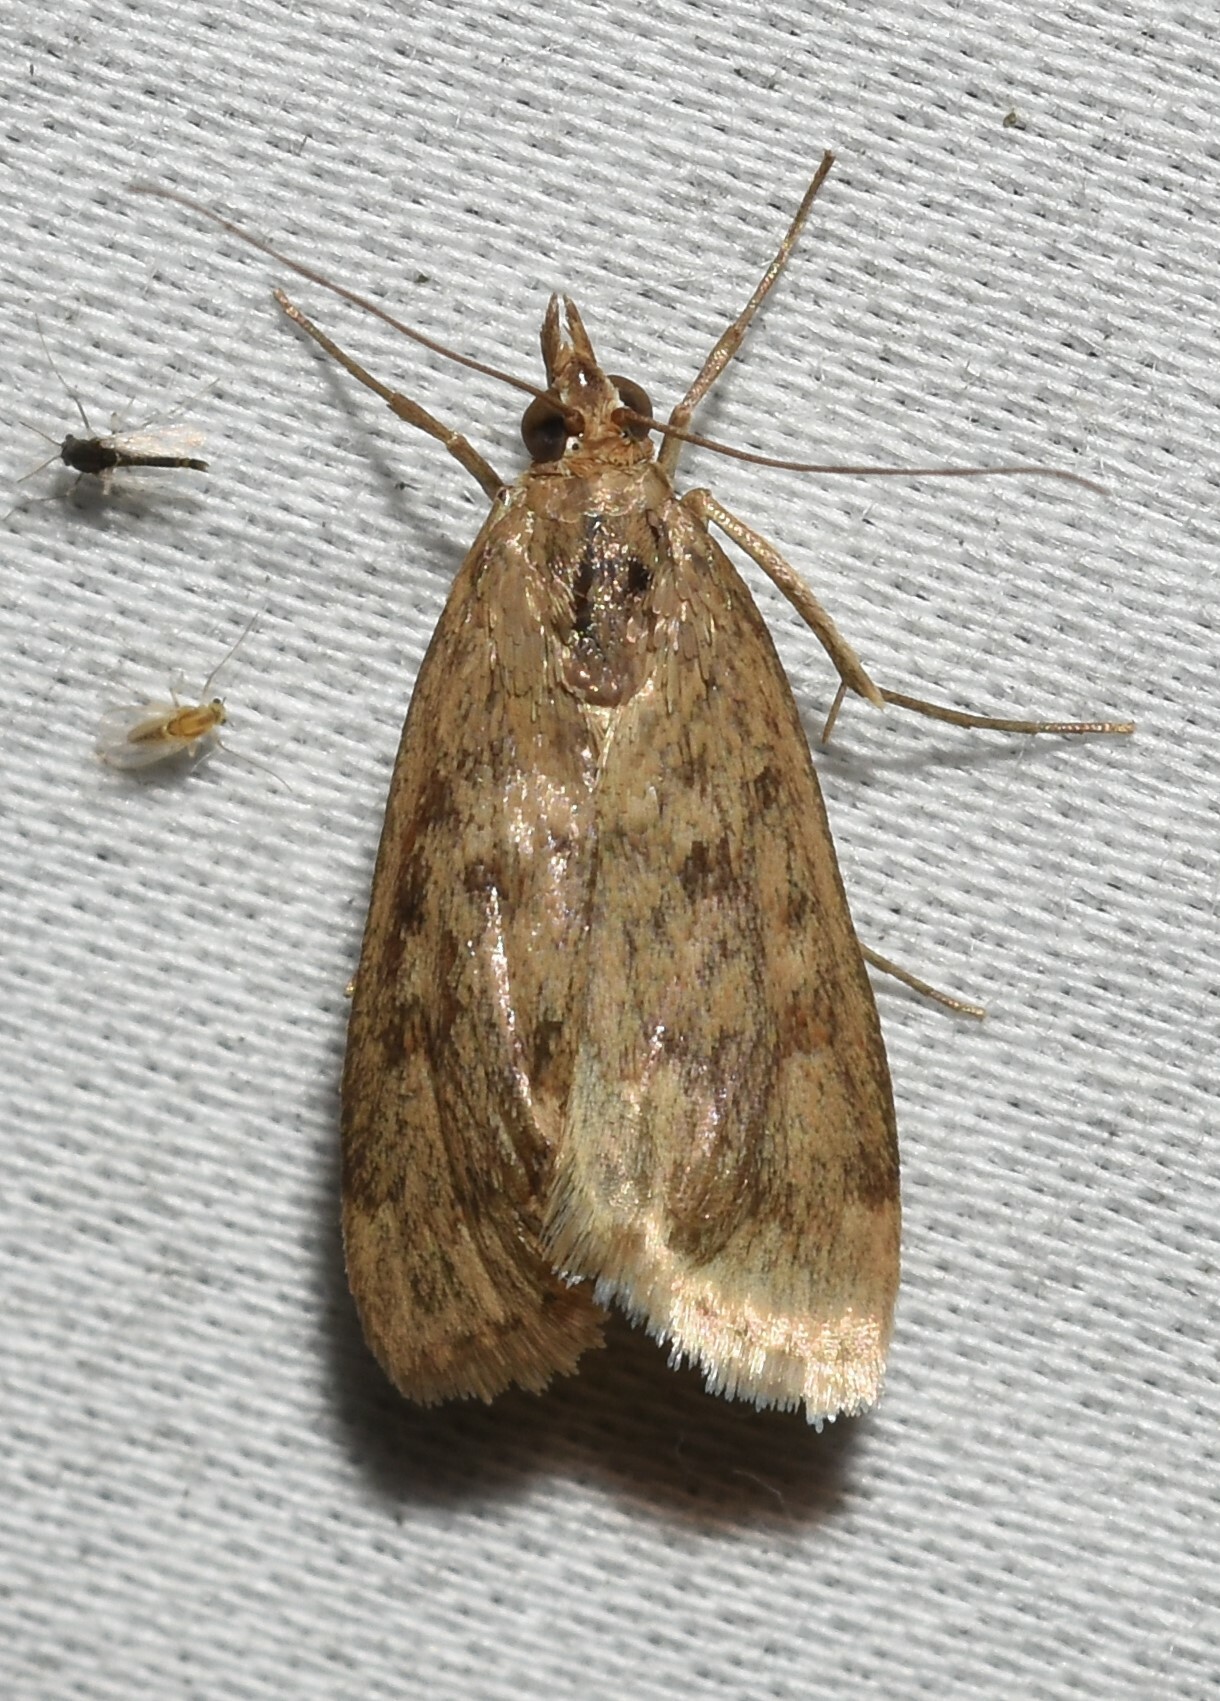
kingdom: Animalia
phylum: Arthropoda
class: Insecta
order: Lepidoptera
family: Crambidae
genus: Achyra
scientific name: Achyra rantalis
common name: Garden webworm
